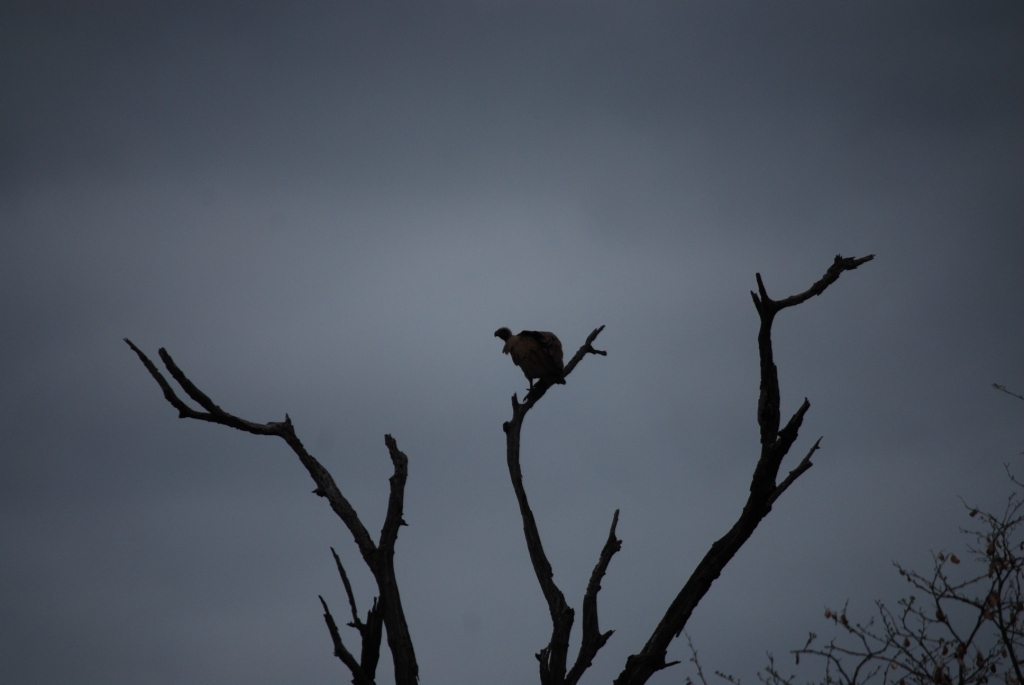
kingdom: Animalia
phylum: Chordata
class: Aves
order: Accipitriformes
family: Accipitridae
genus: Gyps
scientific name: Gyps africanus
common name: White-backed vulture
